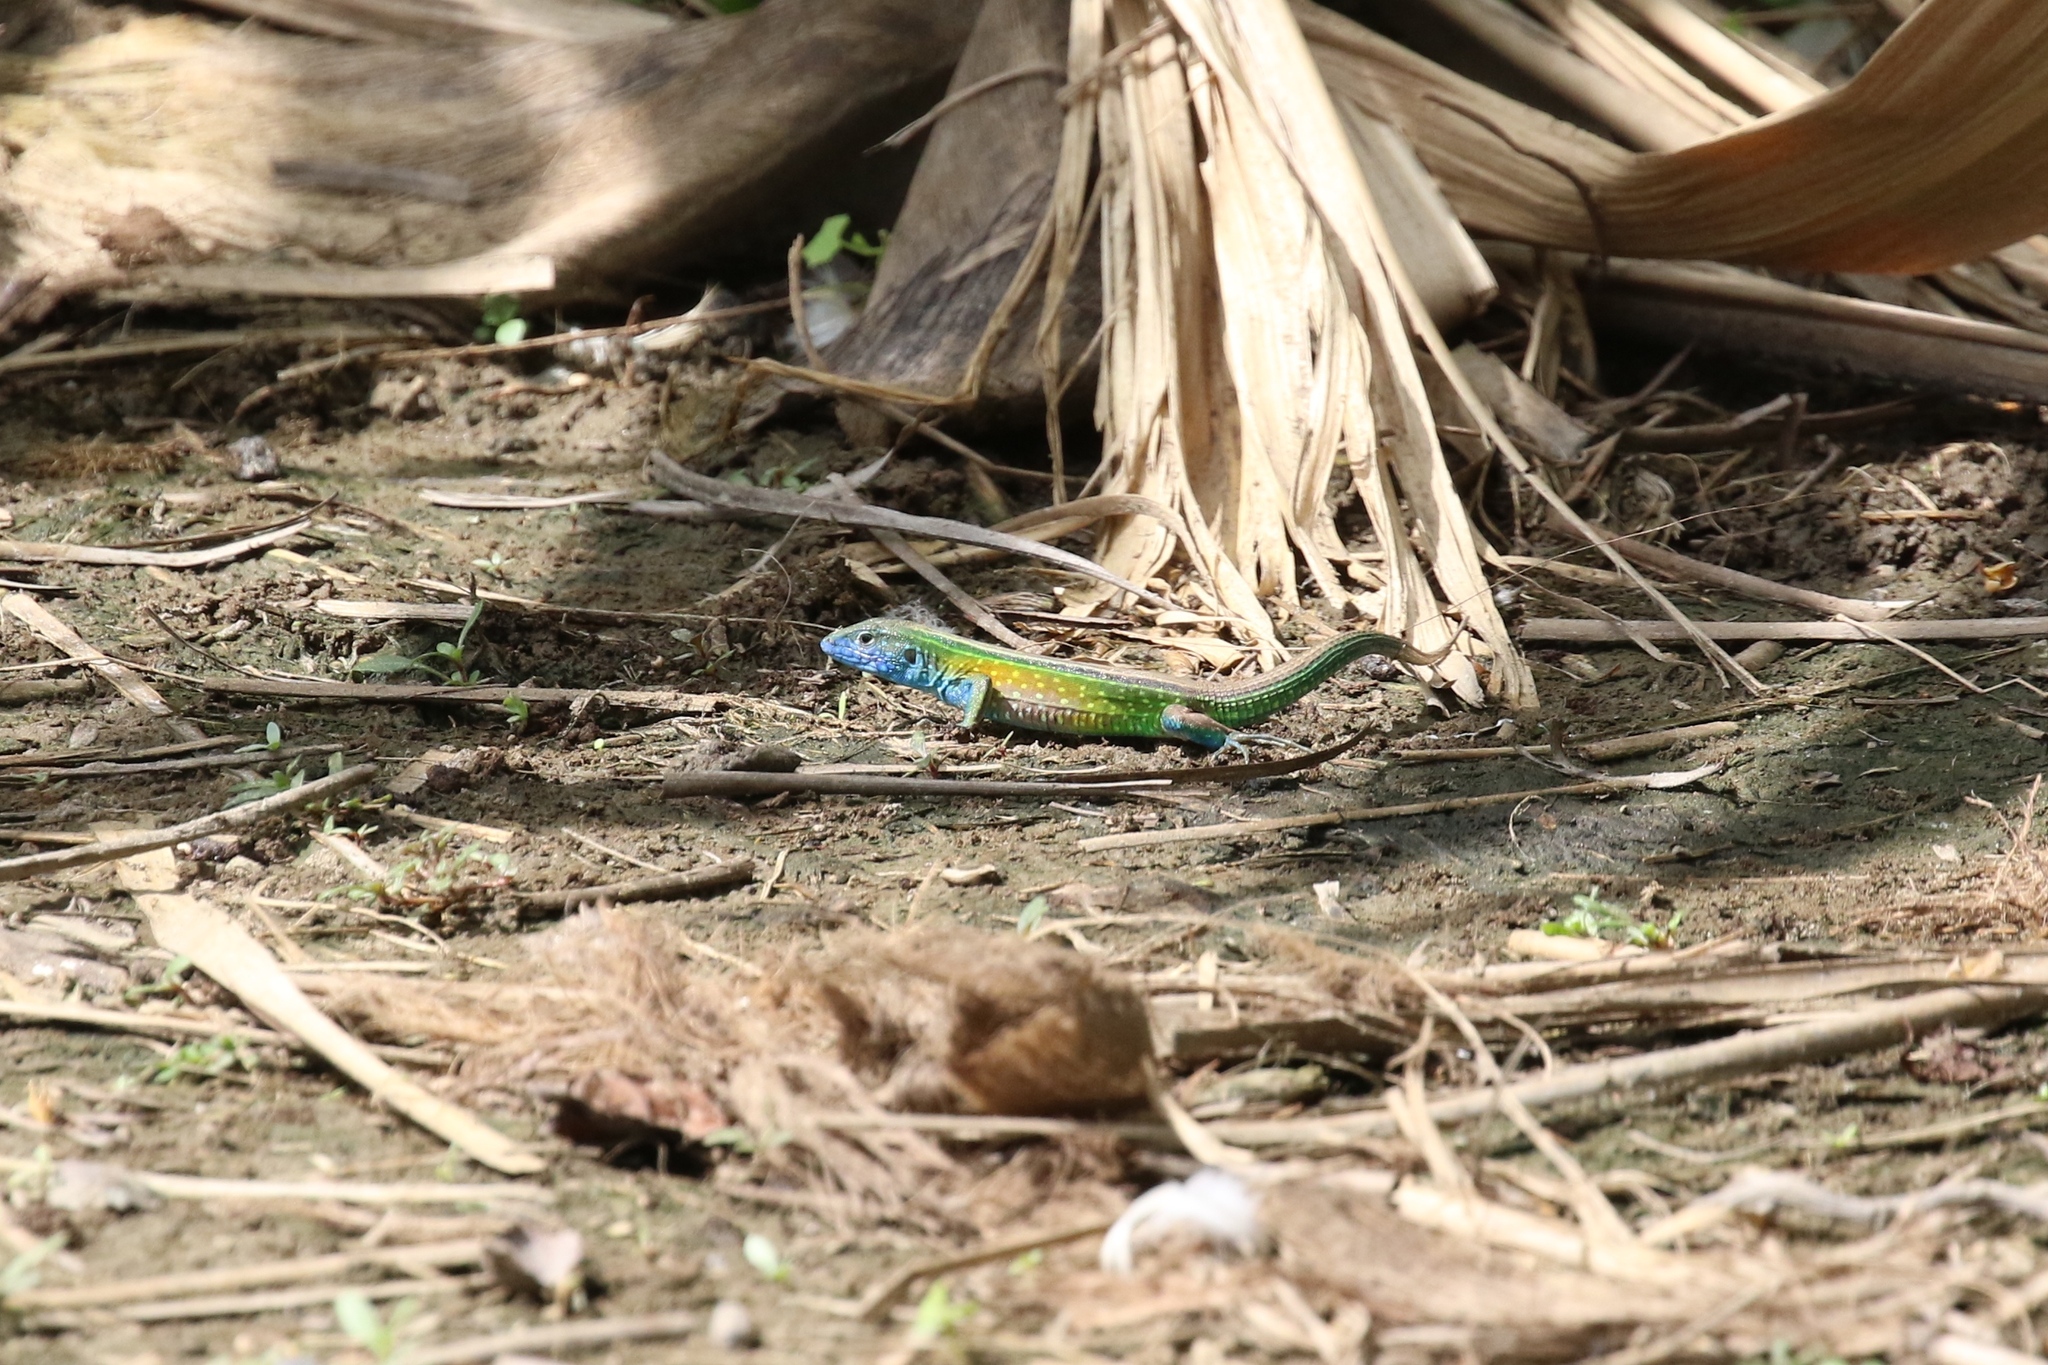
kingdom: Animalia
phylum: Chordata
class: Squamata
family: Teiidae
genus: Cnemidophorus
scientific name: Cnemidophorus gaigei
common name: Gaige’s rainbow lizard
